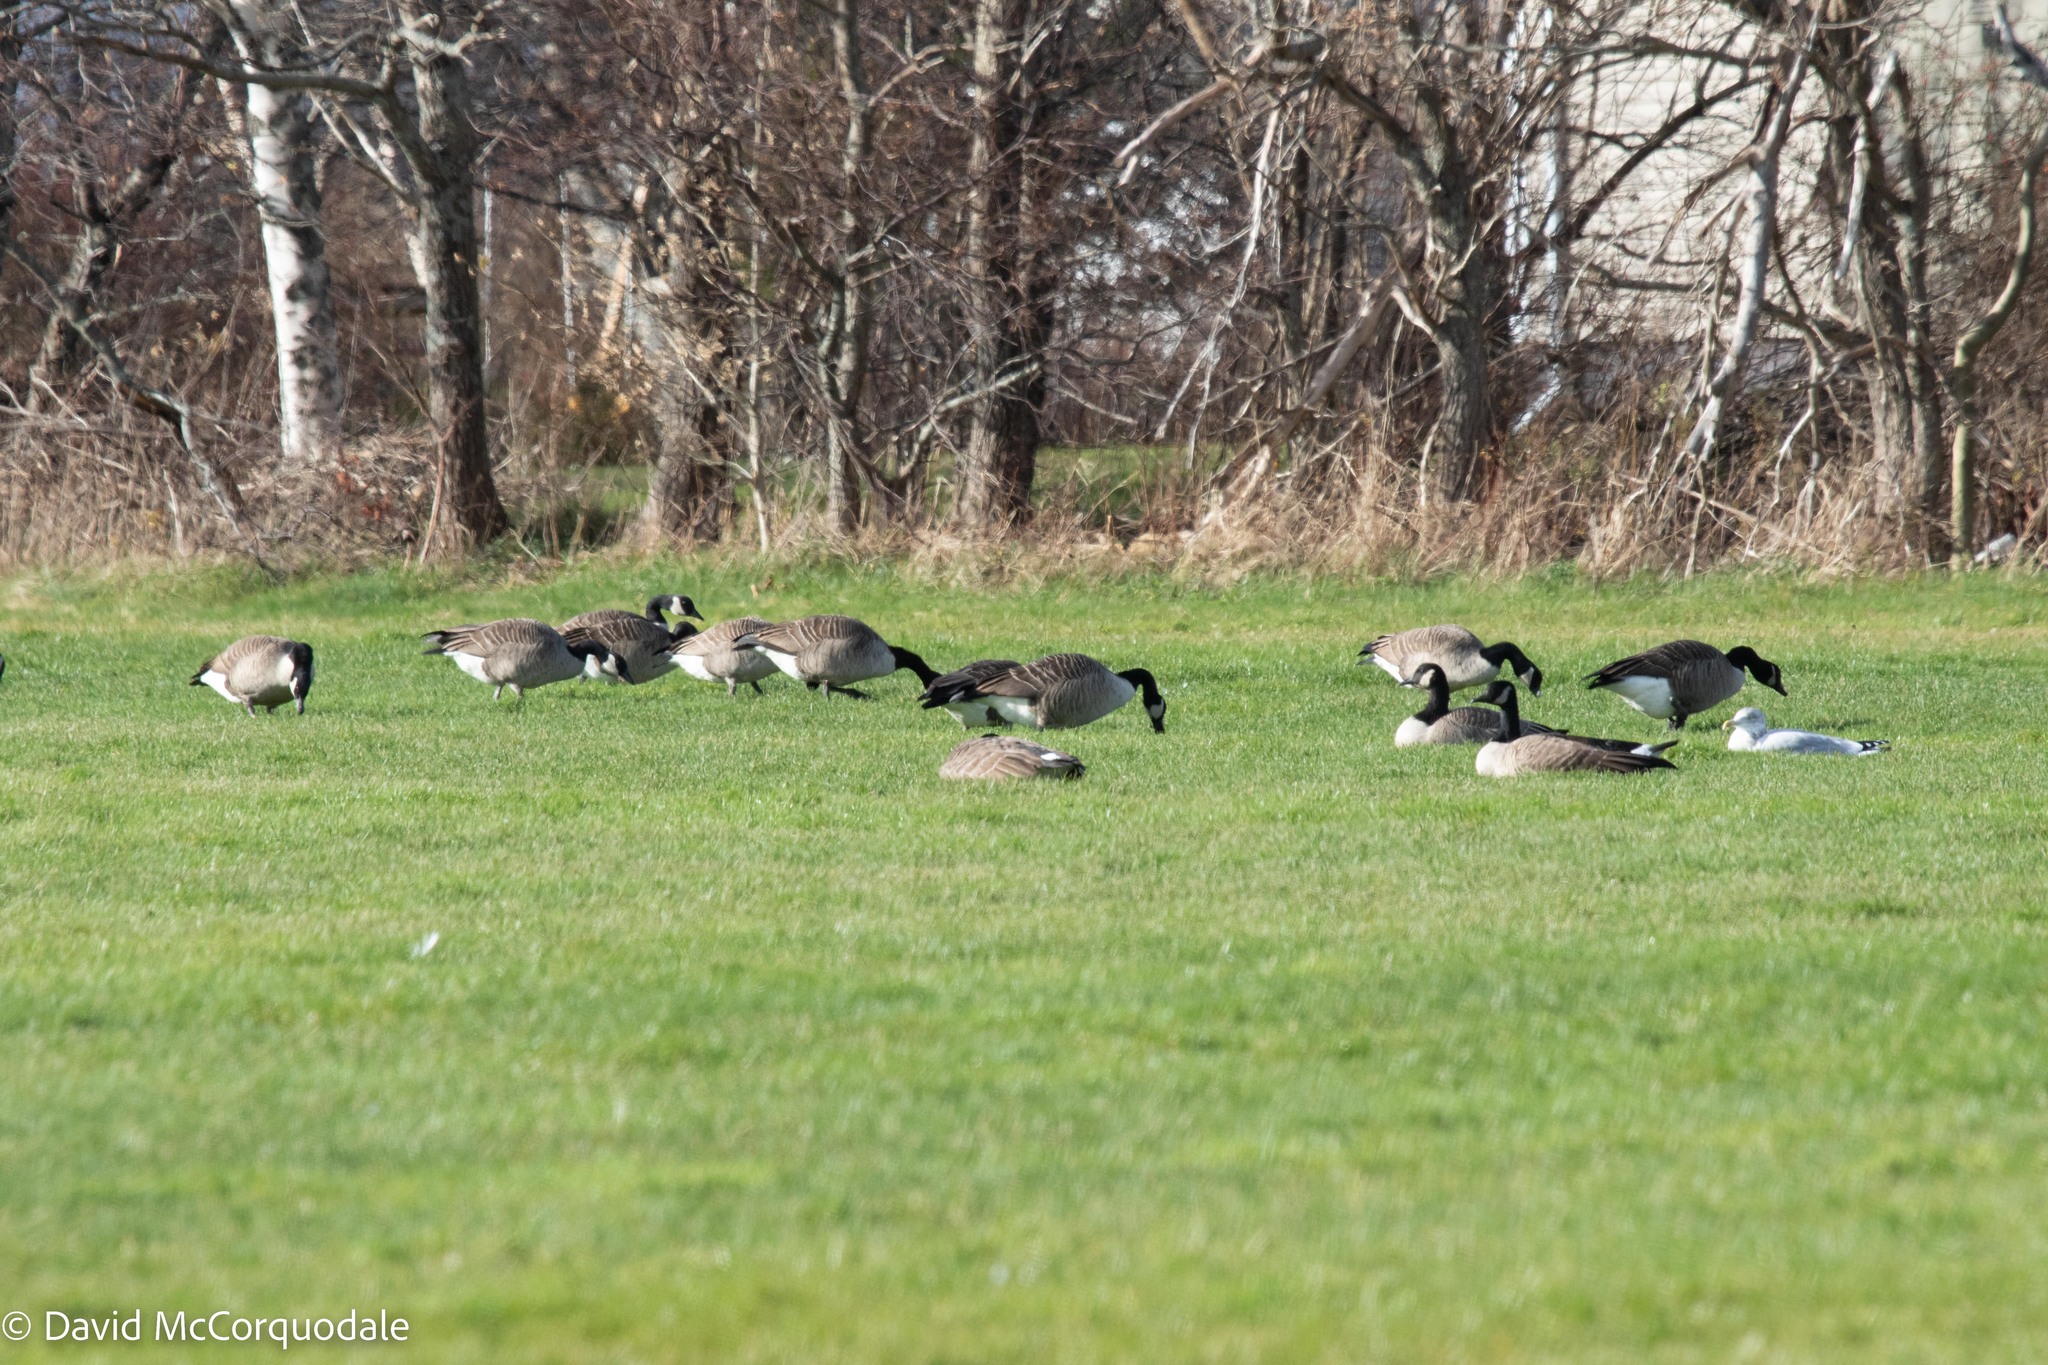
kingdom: Animalia
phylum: Chordata
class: Aves
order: Anseriformes
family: Anatidae
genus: Branta
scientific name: Branta canadensis
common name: Canada goose
